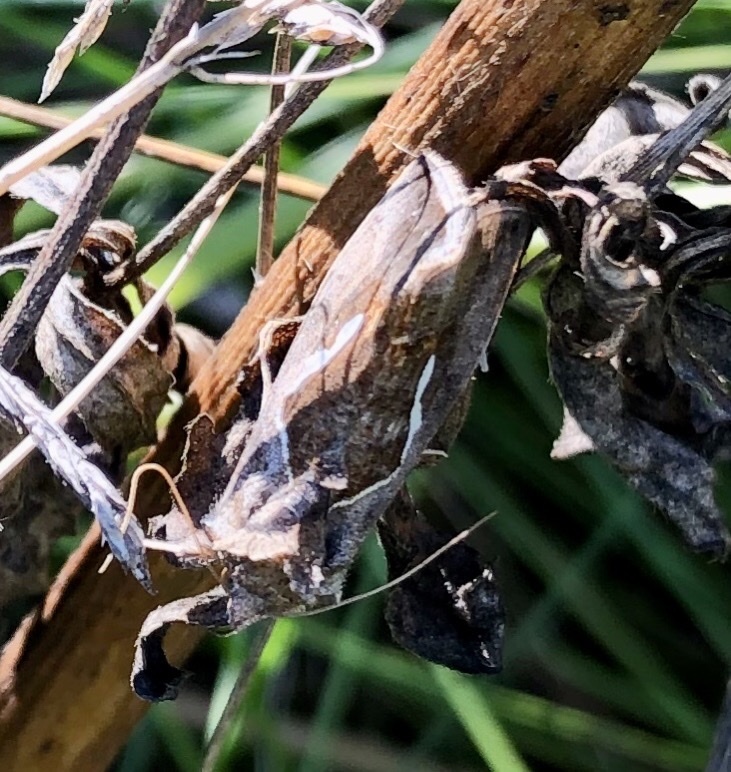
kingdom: Animalia
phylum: Arthropoda
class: Insecta
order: Lepidoptera
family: Noctuidae
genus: Macdunnoughia
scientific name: Macdunnoughia confusa
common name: Dewick's plusia
